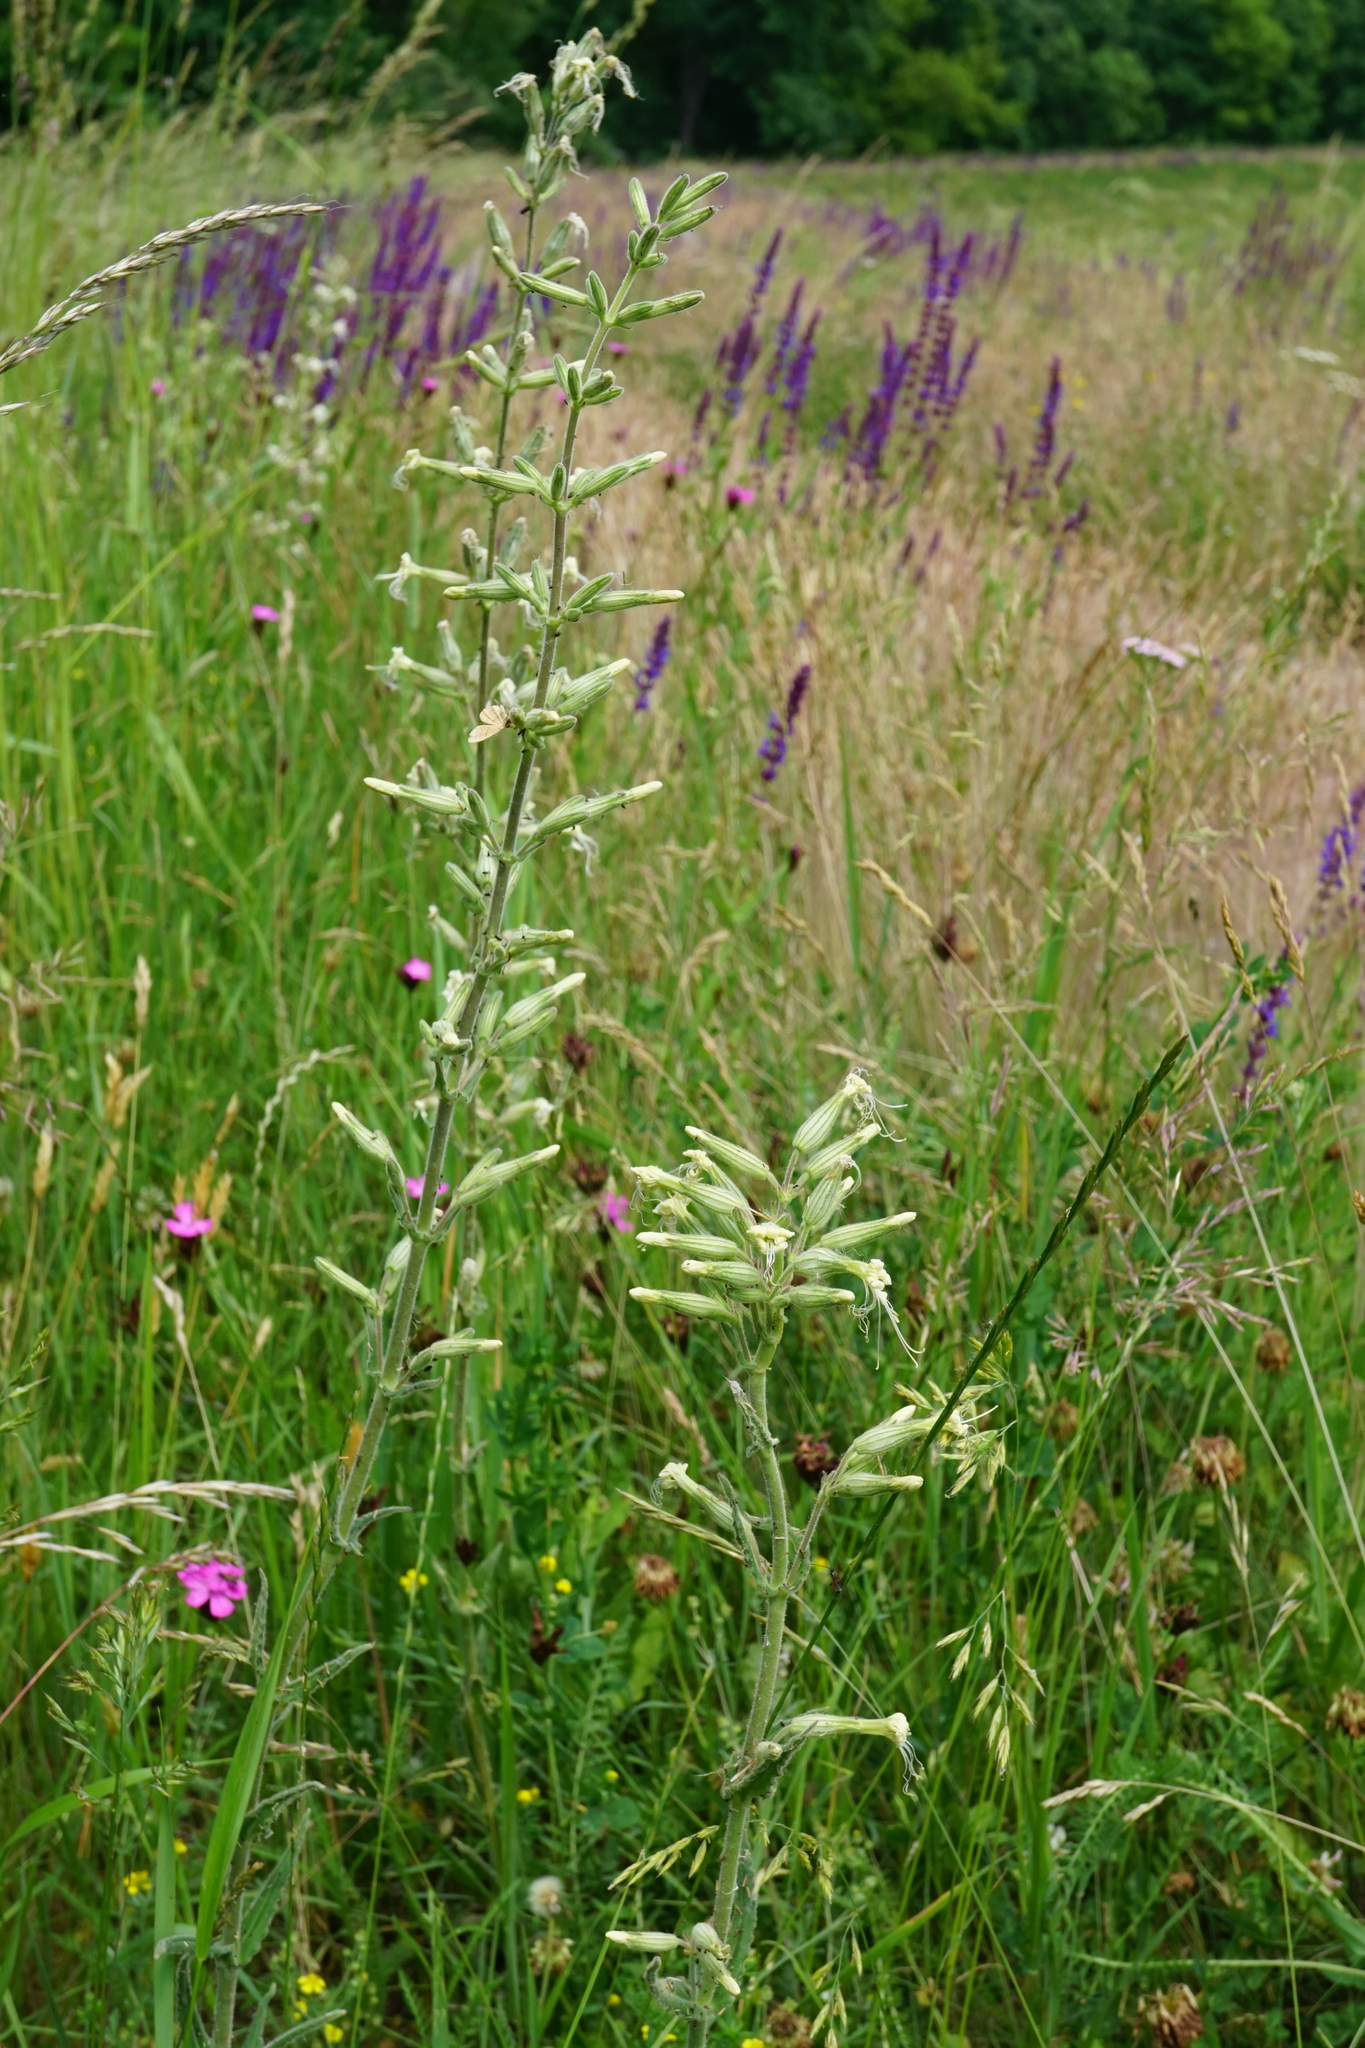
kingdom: Plantae
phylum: Tracheophyta
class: Magnoliopsida
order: Caryophyllales
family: Caryophyllaceae
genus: Silene
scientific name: Silene viscosa
